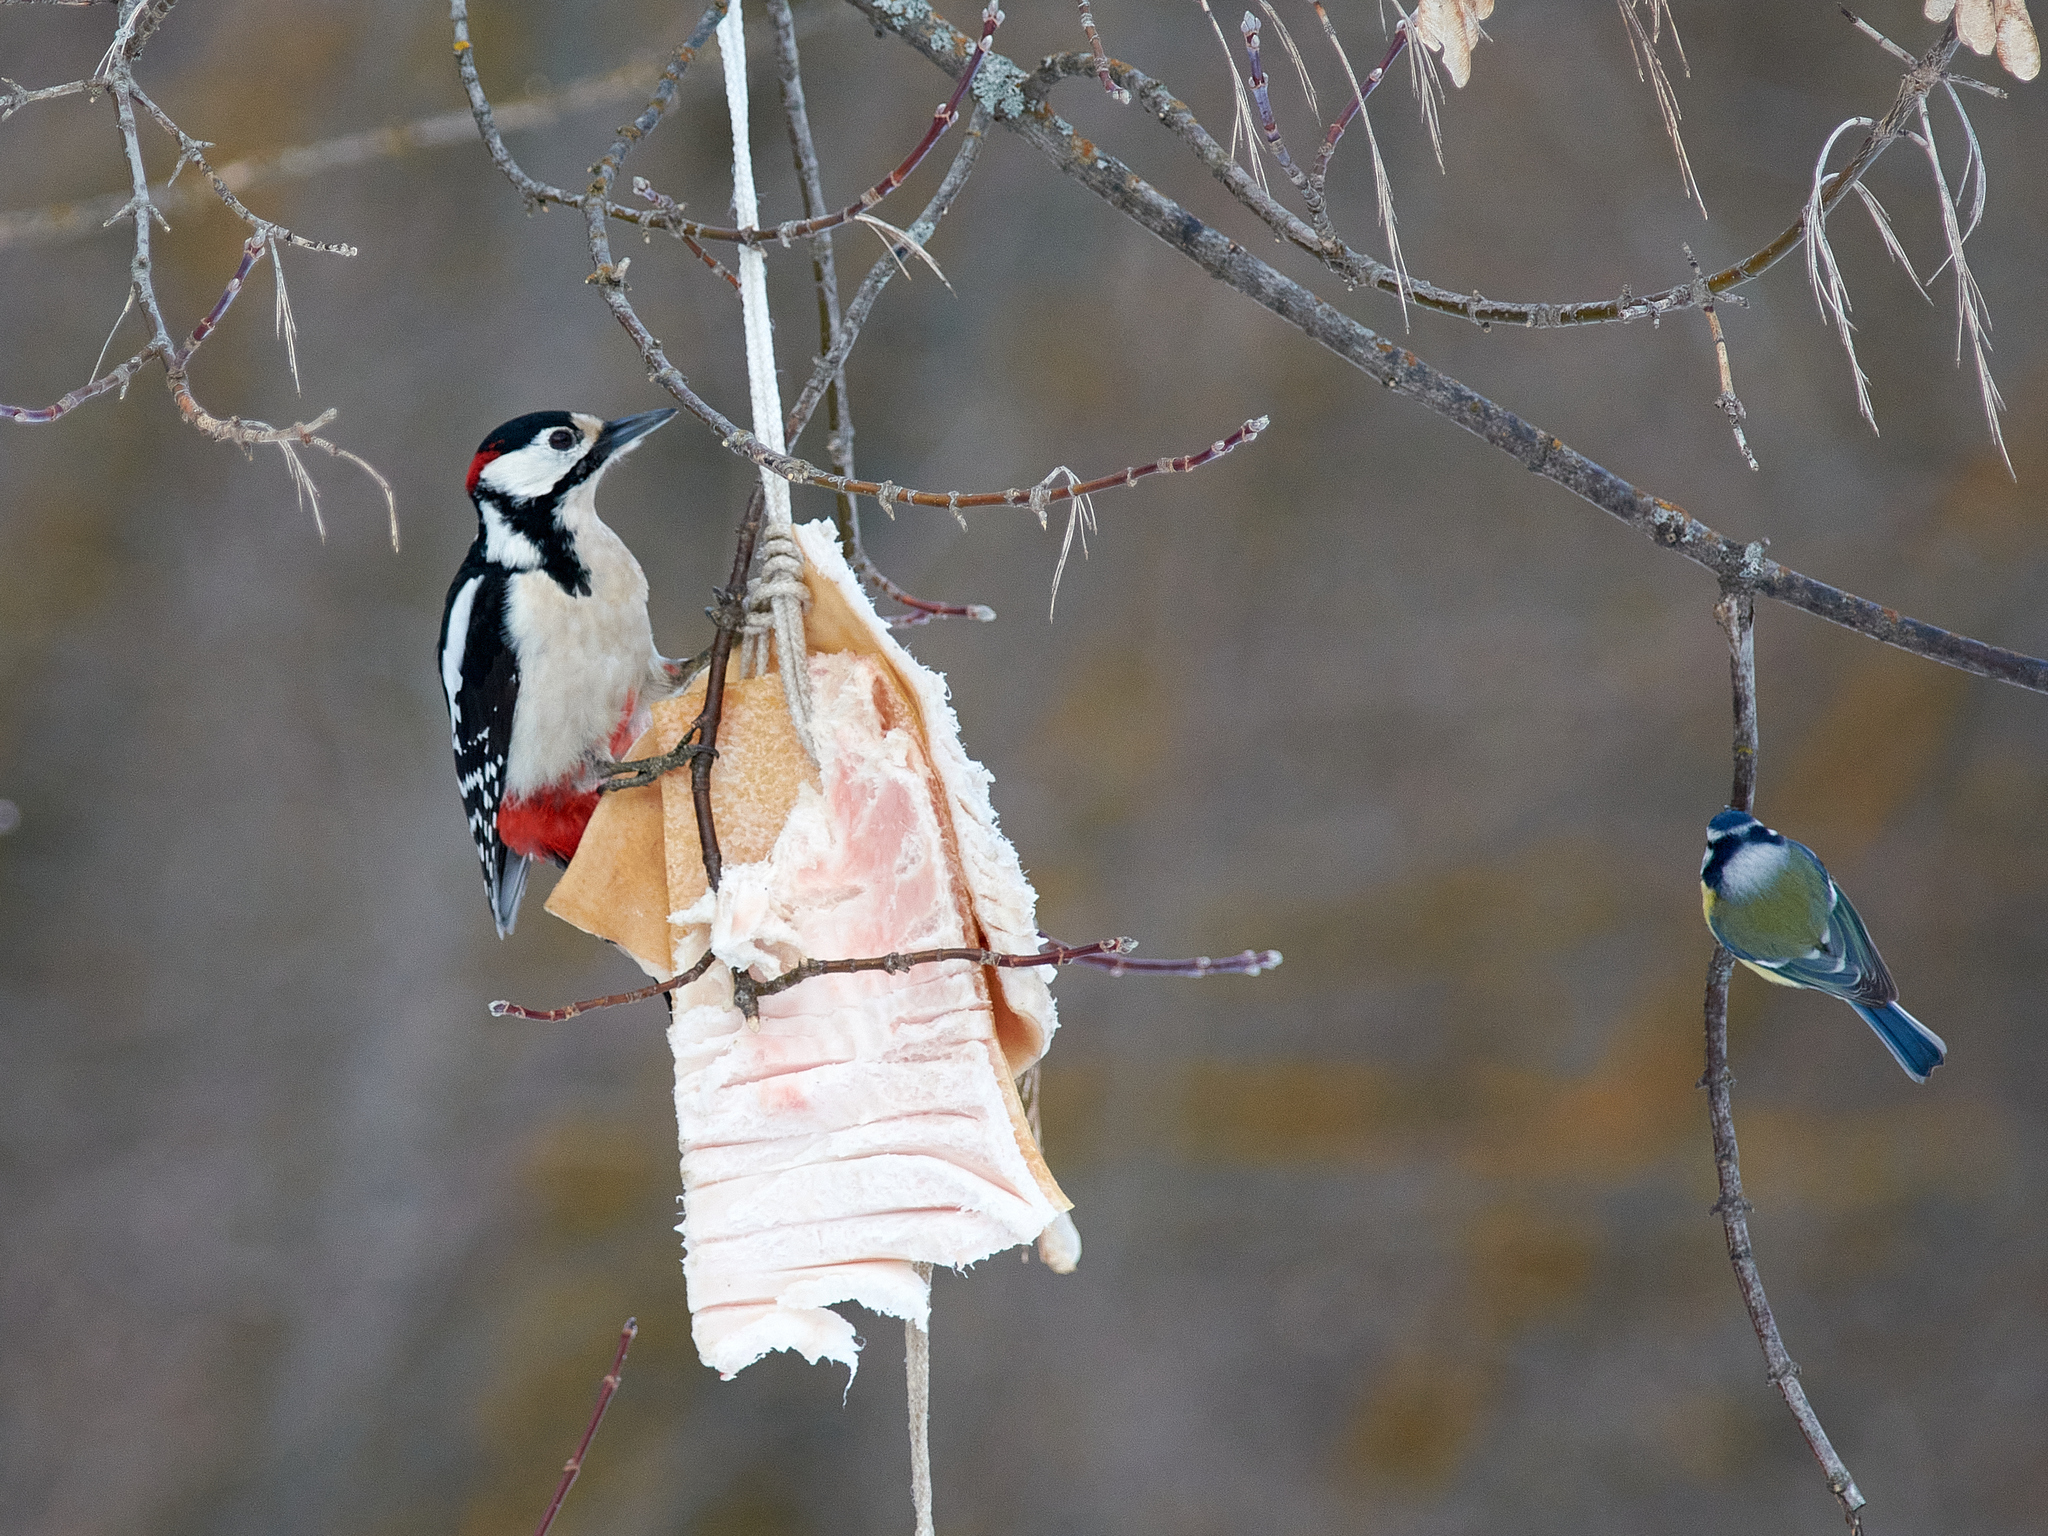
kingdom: Animalia
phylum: Chordata
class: Aves
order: Piciformes
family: Picidae
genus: Dendrocopos
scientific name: Dendrocopos major
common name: Great spotted woodpecker
